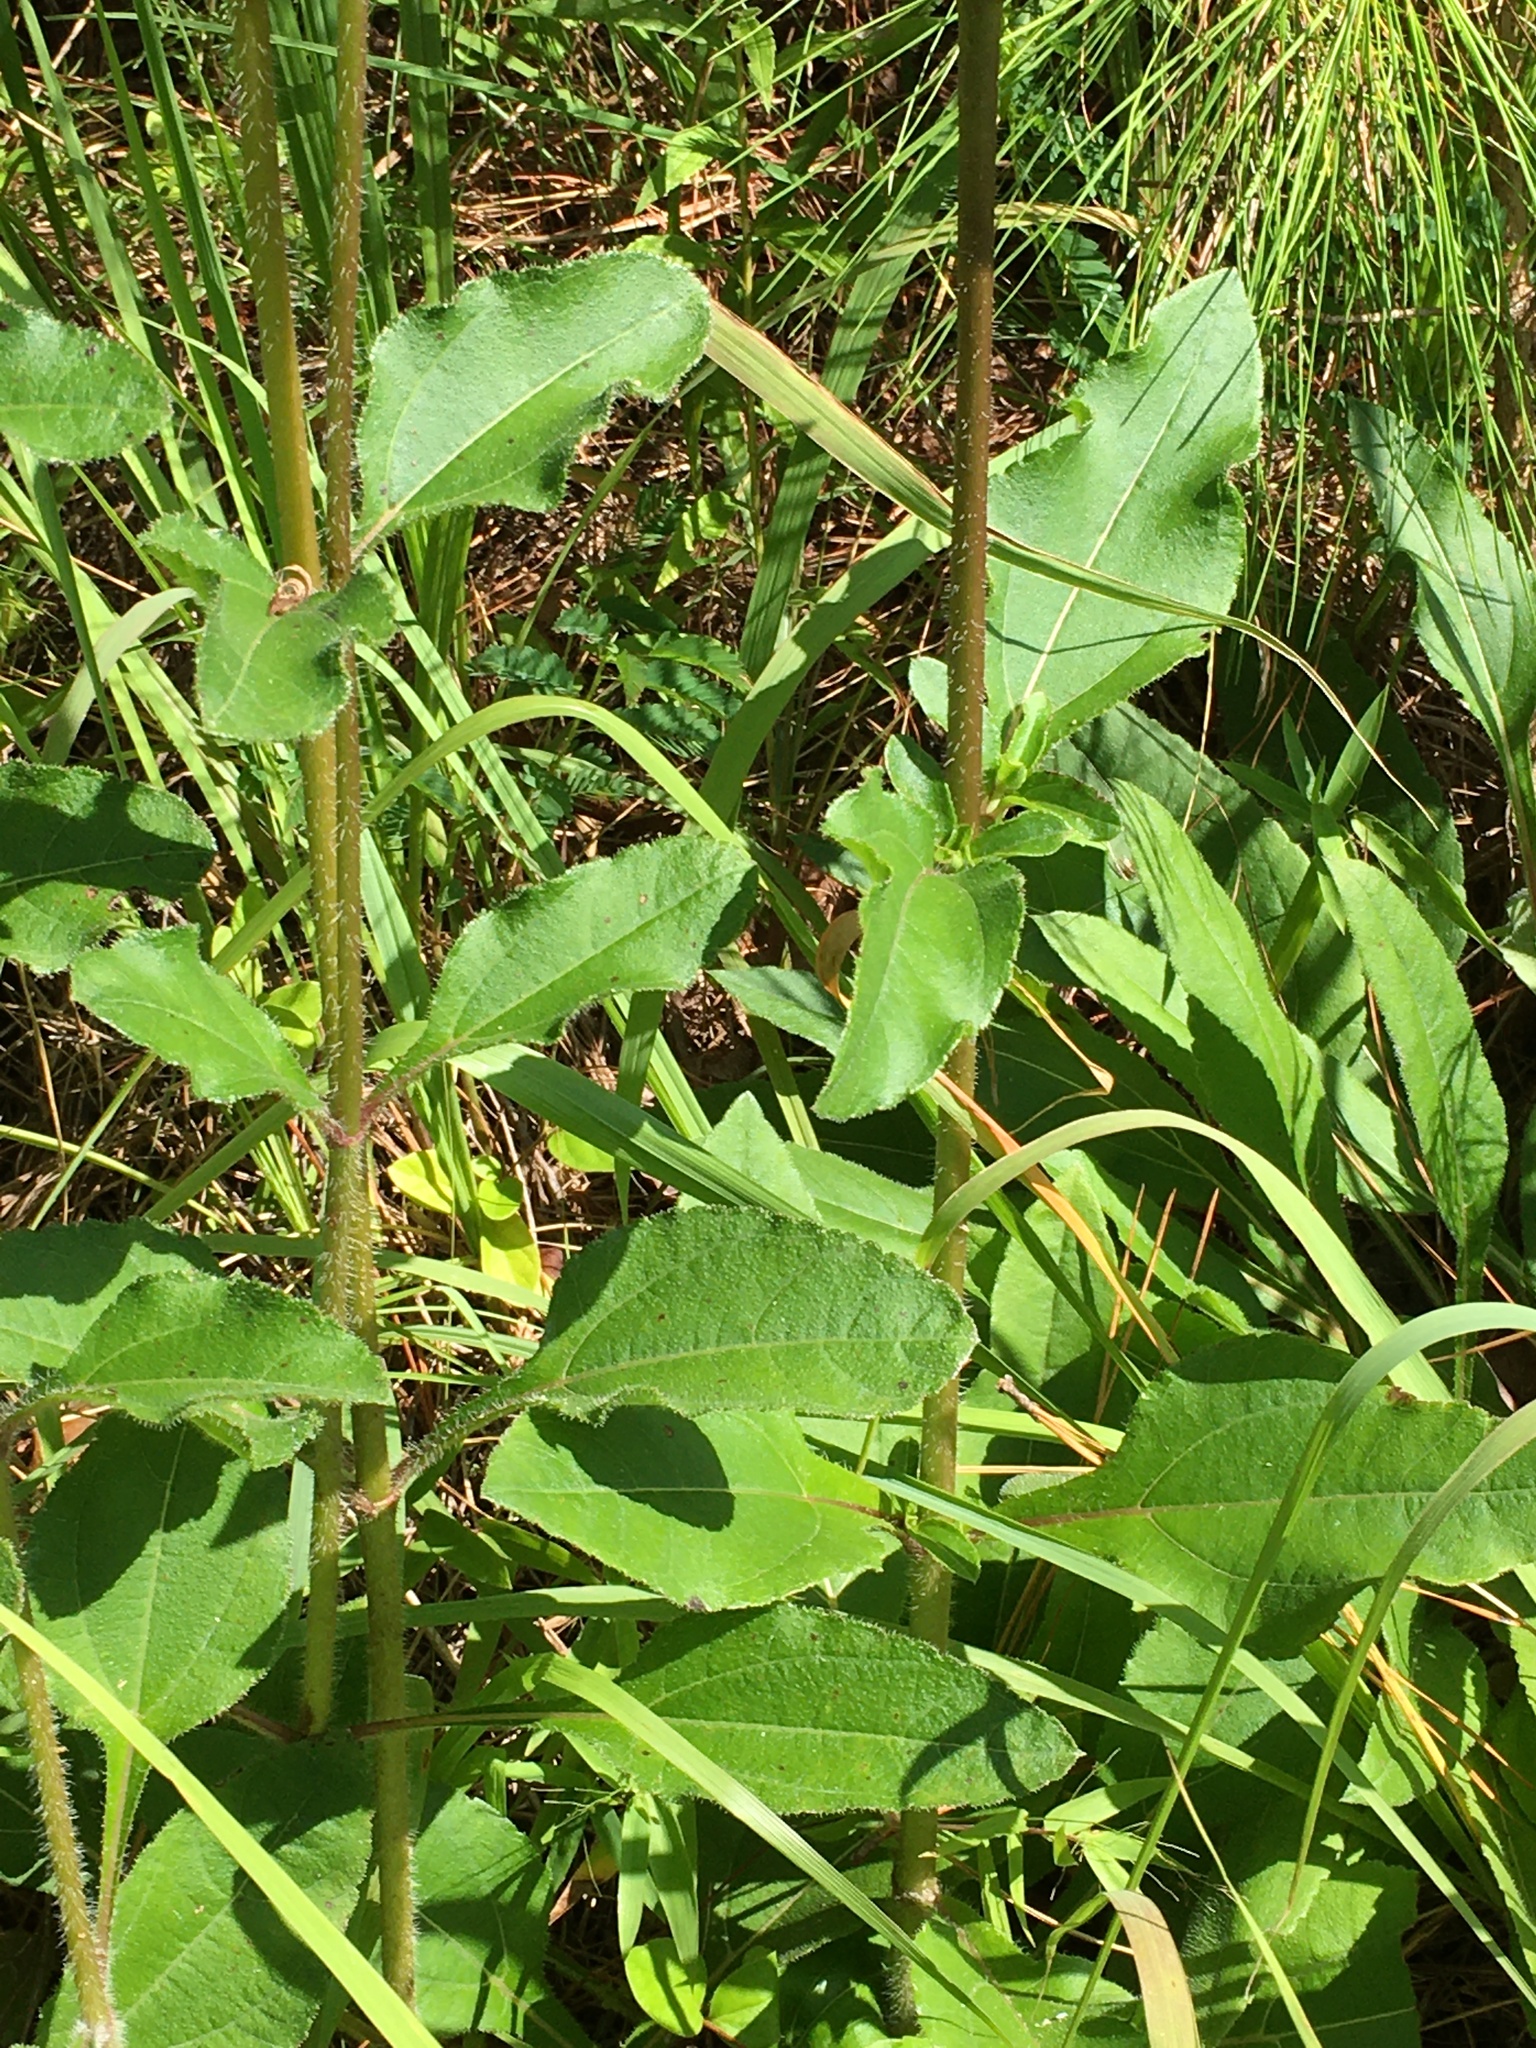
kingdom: Plantae
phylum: Tracheophyta
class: Magnoliopsida
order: Asterales
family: Asteraceae
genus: Helianthus
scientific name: Helianthus atrorubens
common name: Dark-eyed sunflower
